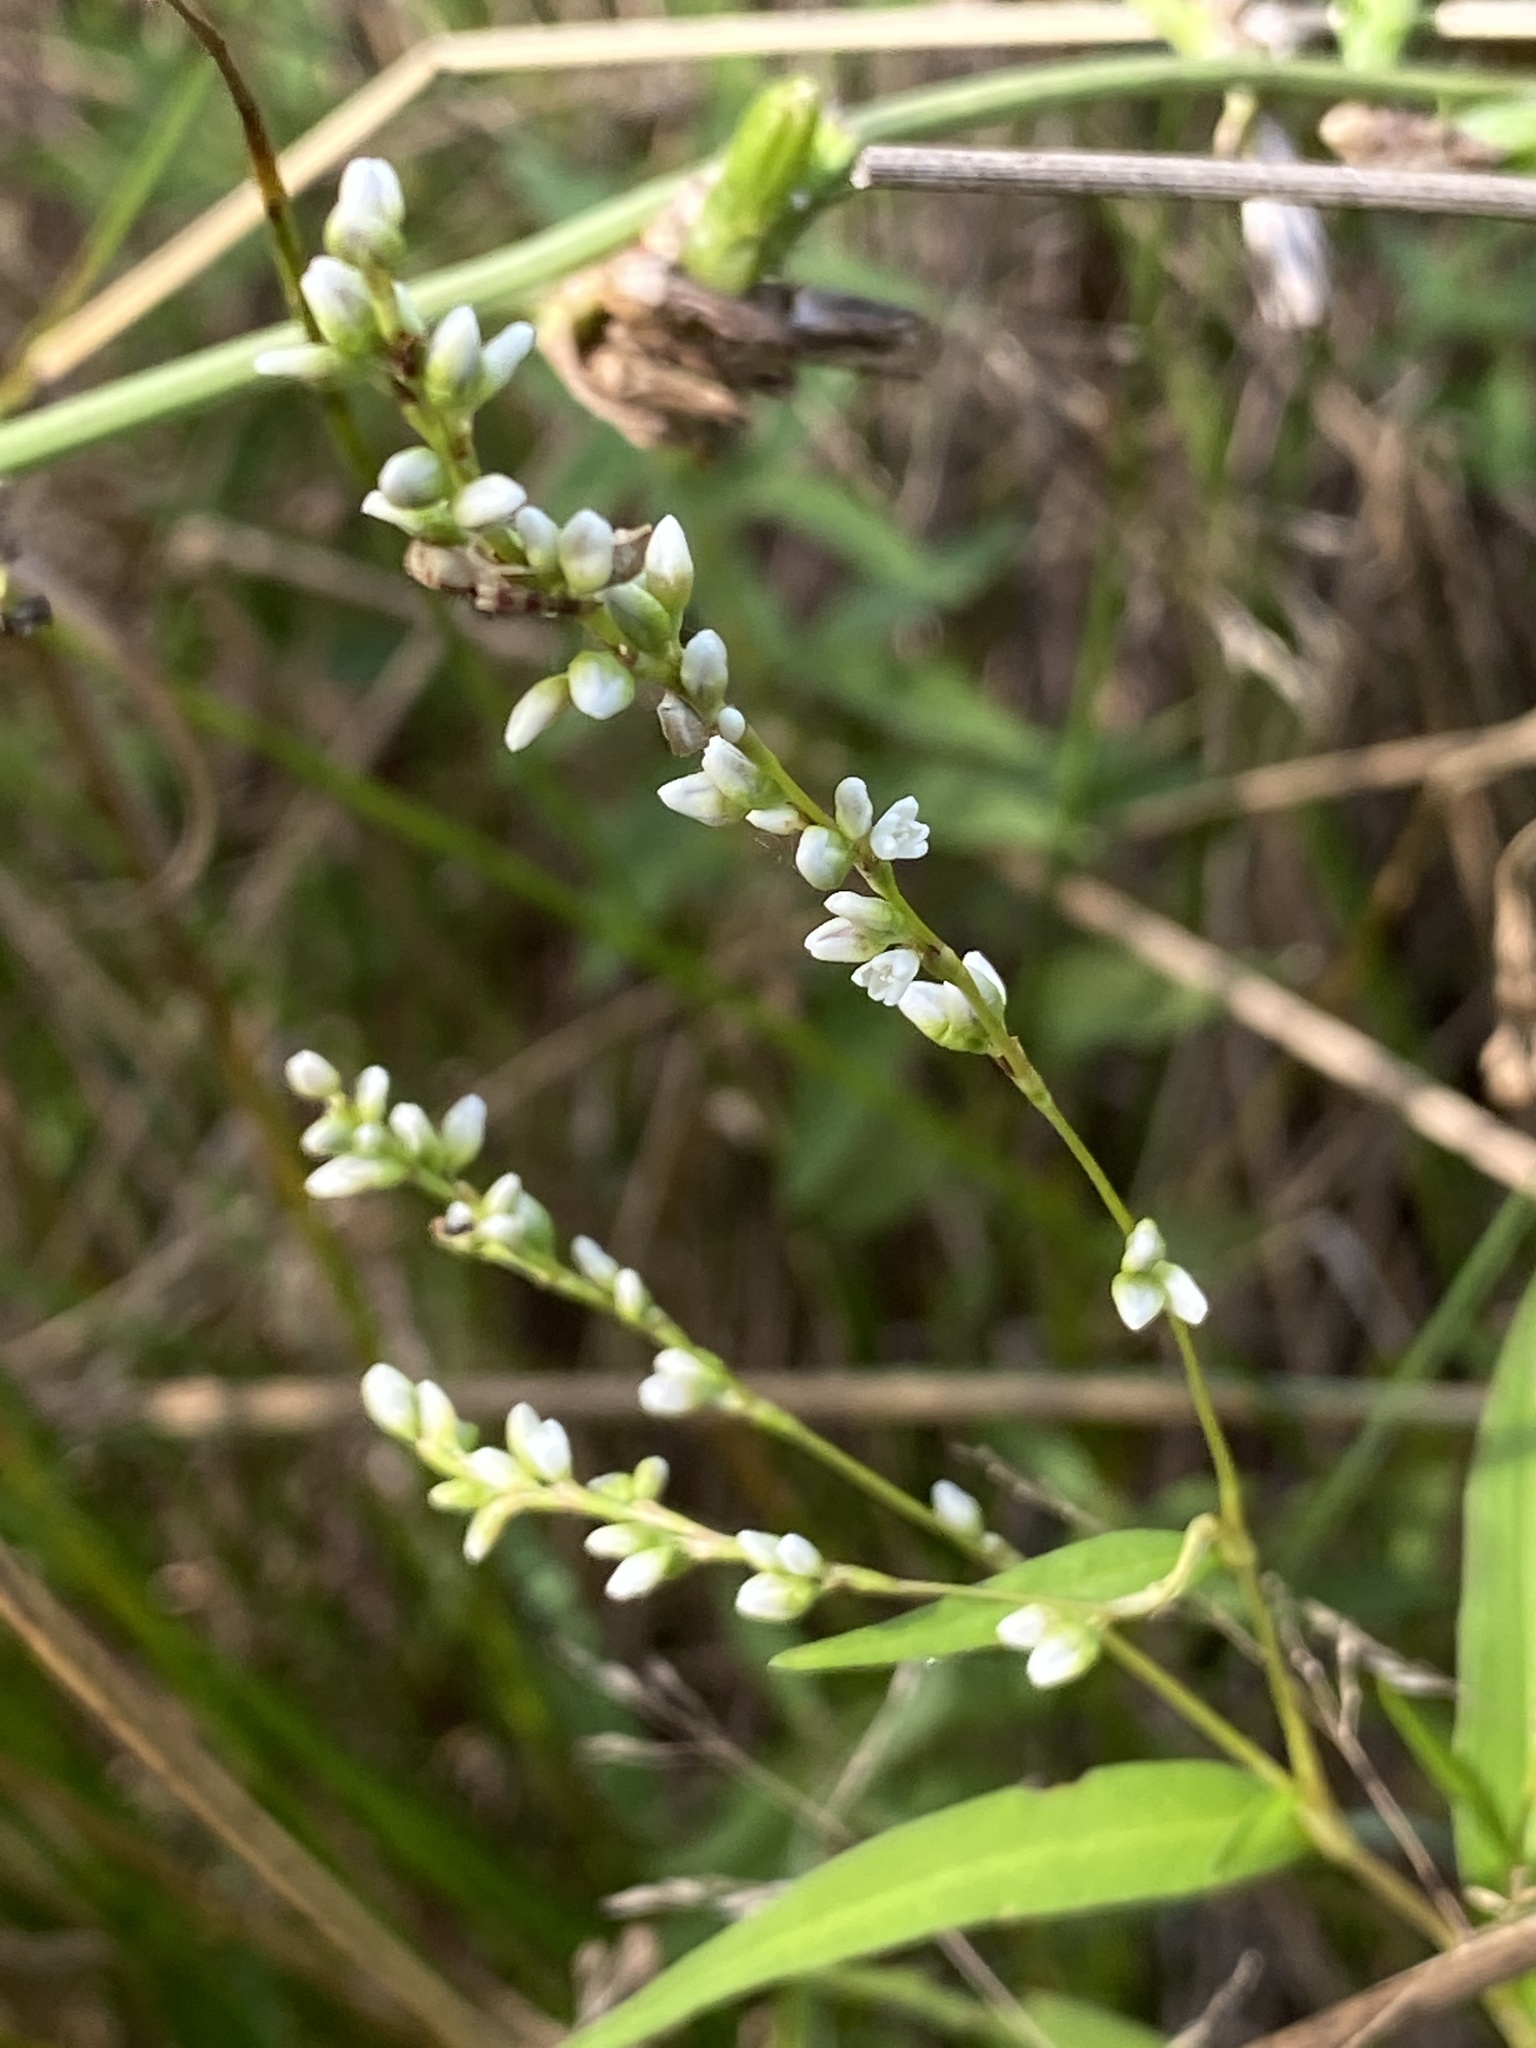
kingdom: Plantae
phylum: Tracheophyta
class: Magnoliopsida
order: Caryophyllales
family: Polygonaceae
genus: Persicaria
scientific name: Persicaria punctata
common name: Dotted smartweed
